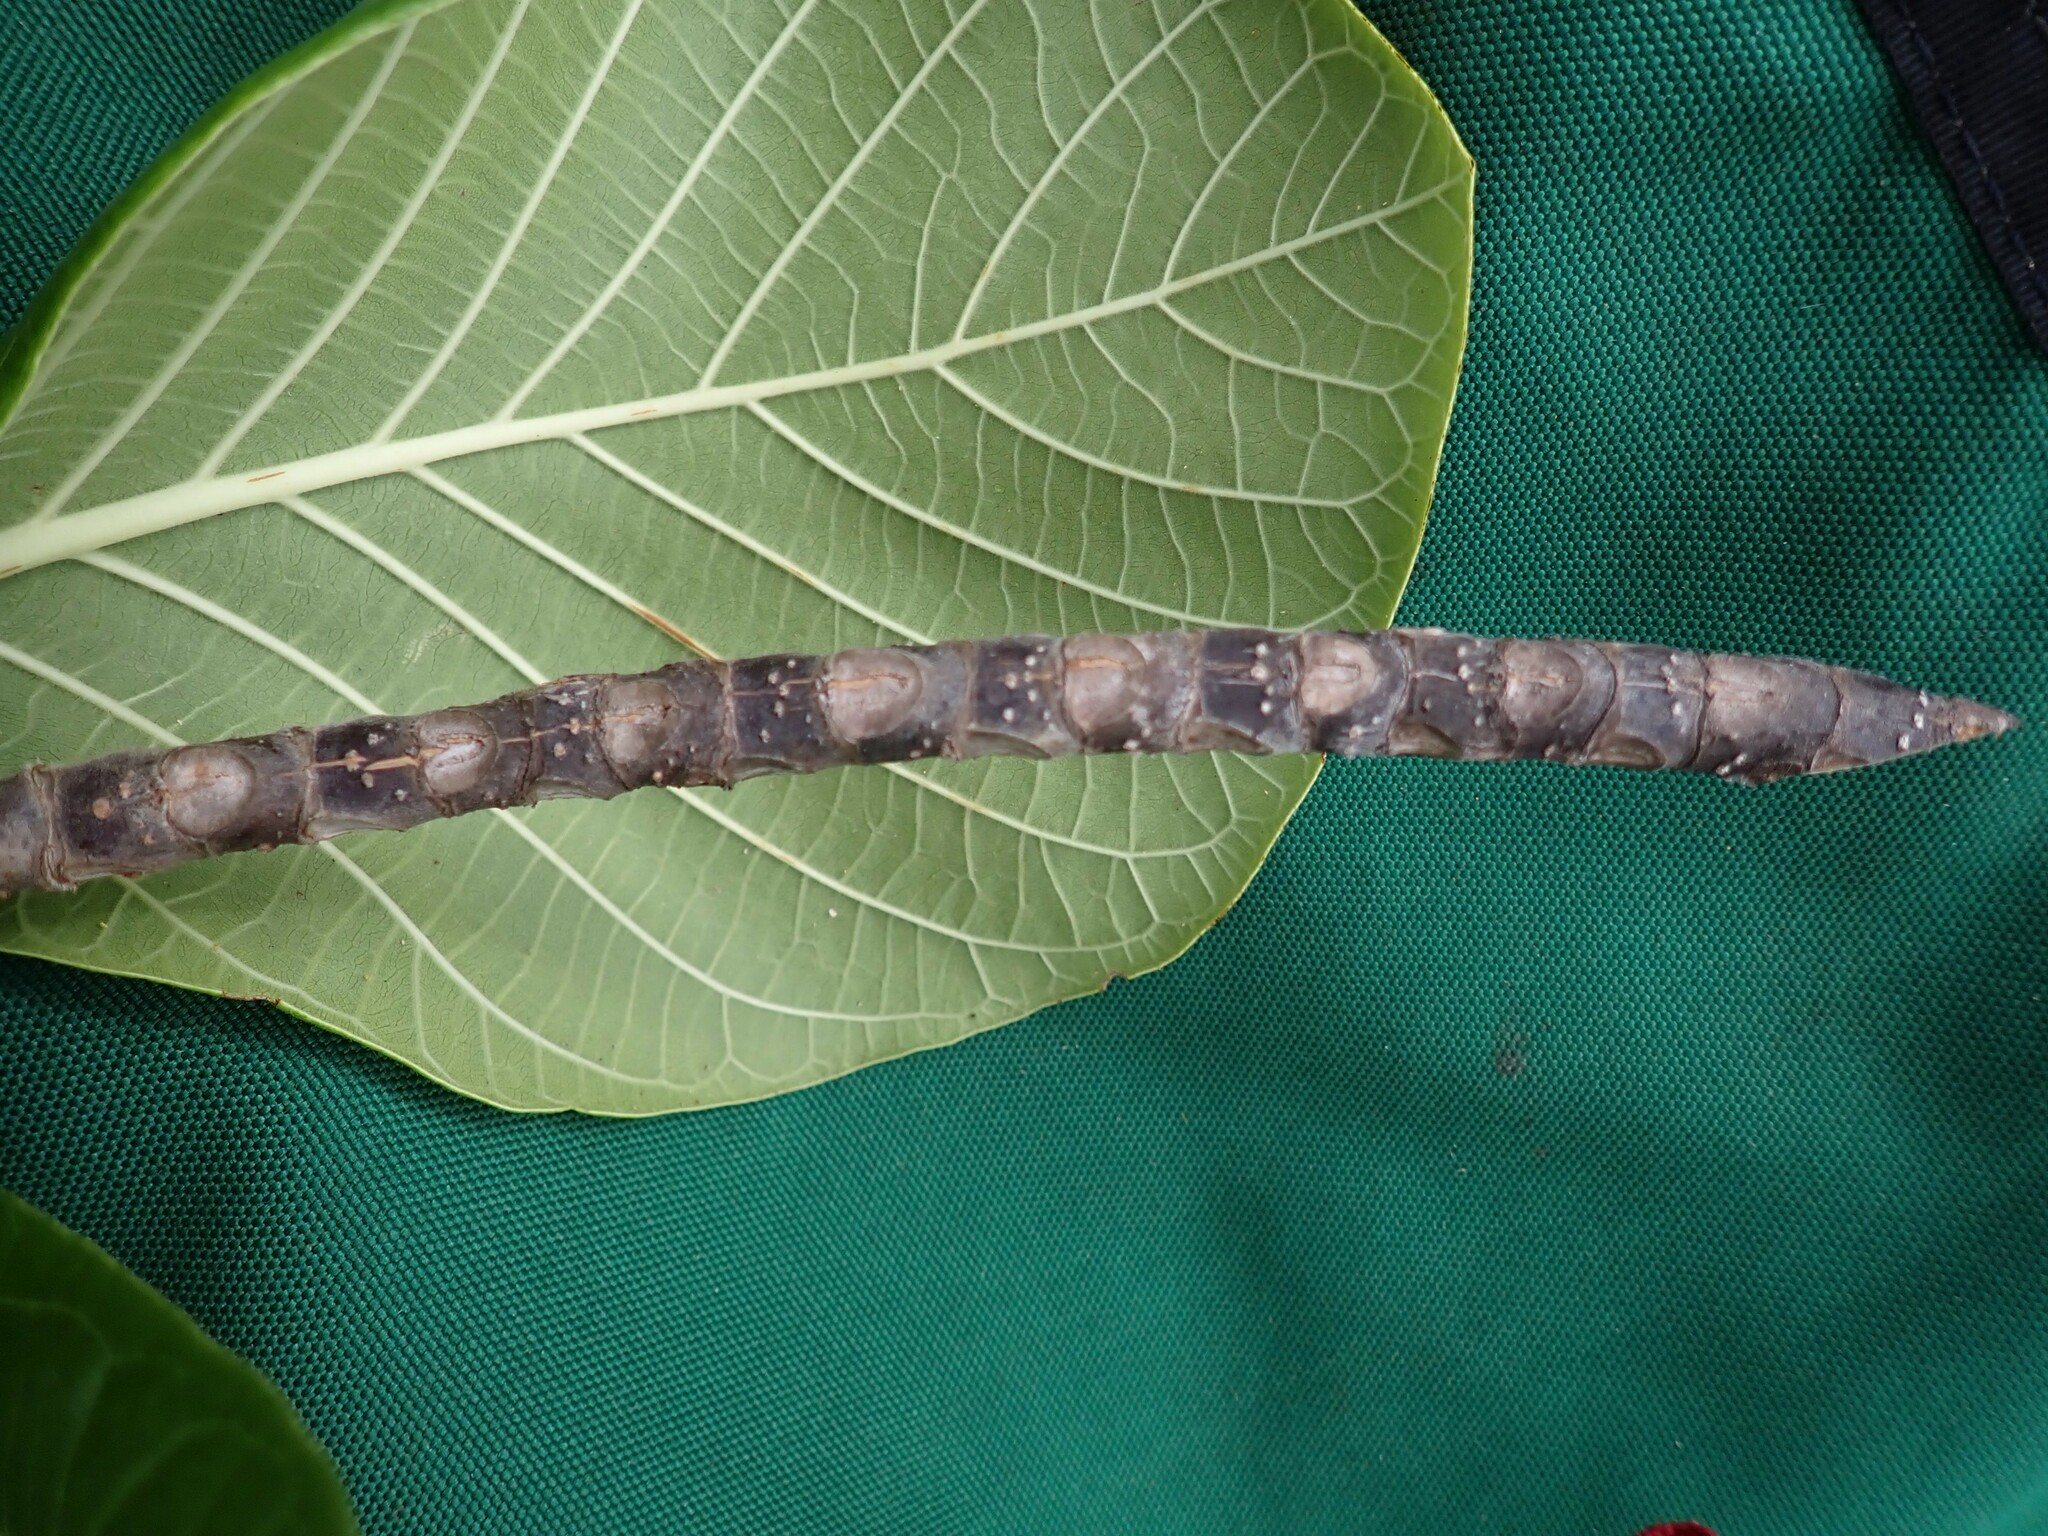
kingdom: Plantae
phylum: Tracheophyta
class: Magnoliopsida
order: Gentianales
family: Rubiaceae
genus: Guettarda
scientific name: Guettarda speciosa
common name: Sea randa
